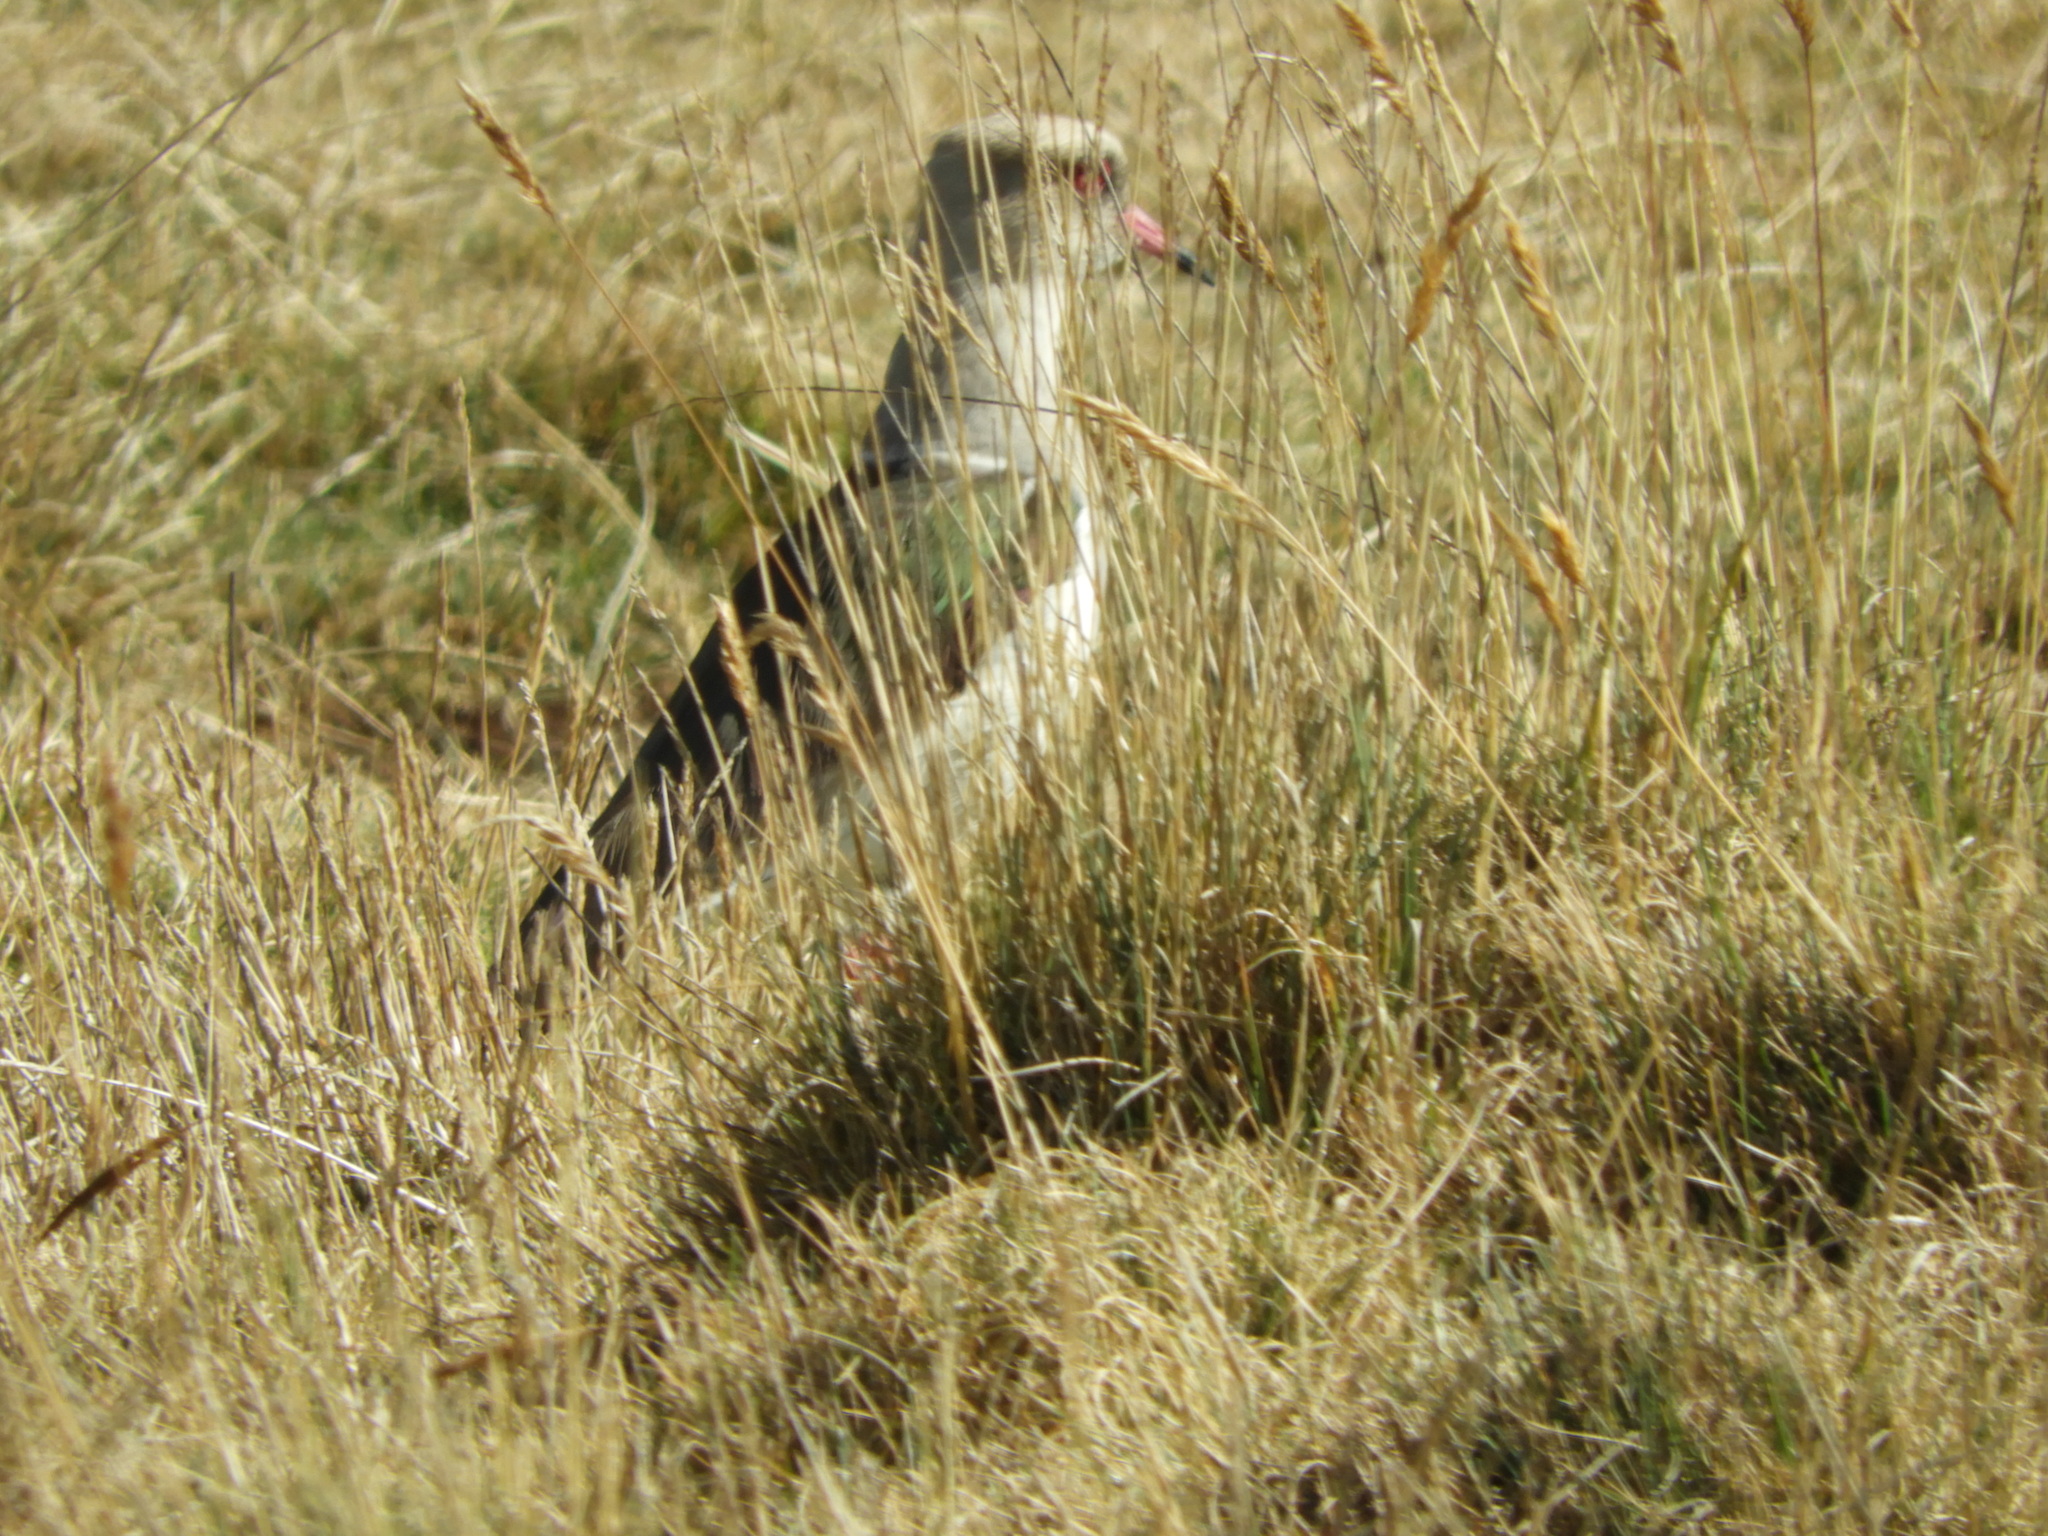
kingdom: Animalia
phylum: Chordata
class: Aves
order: Charadriiformes
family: Charadriidae
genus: Vanellus
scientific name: Vanellus resplendens
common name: Andean lapwing
